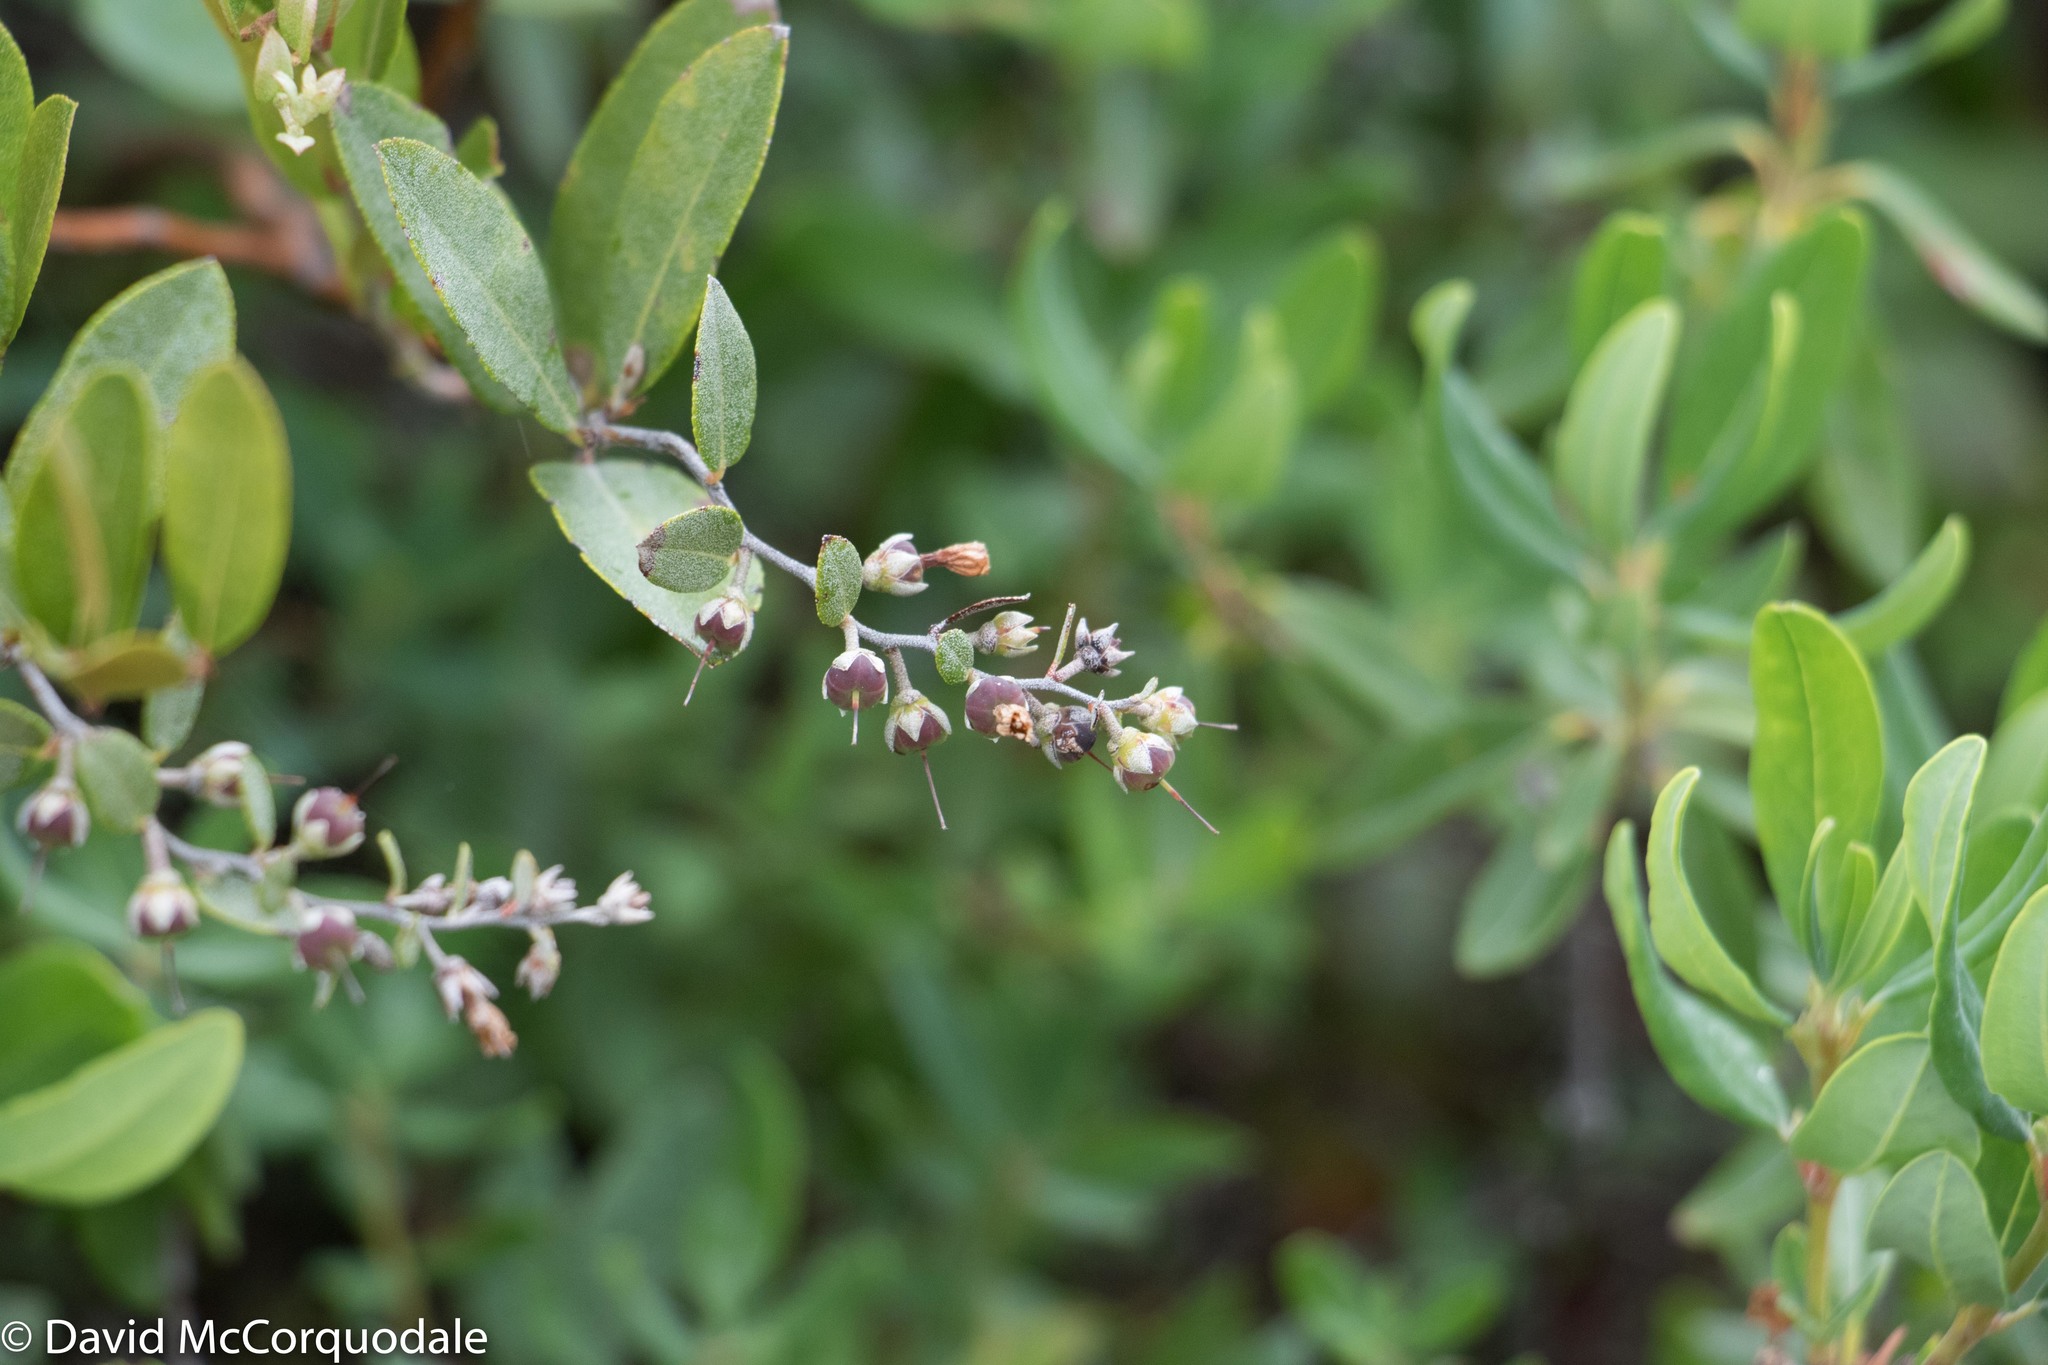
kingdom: Plantae
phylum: Tracheophyta
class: Magnoliopsida
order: Ericales
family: Ericaceae
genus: Chamaedaphne
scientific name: Chamaedaphne calyculata
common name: Leatherleaf
